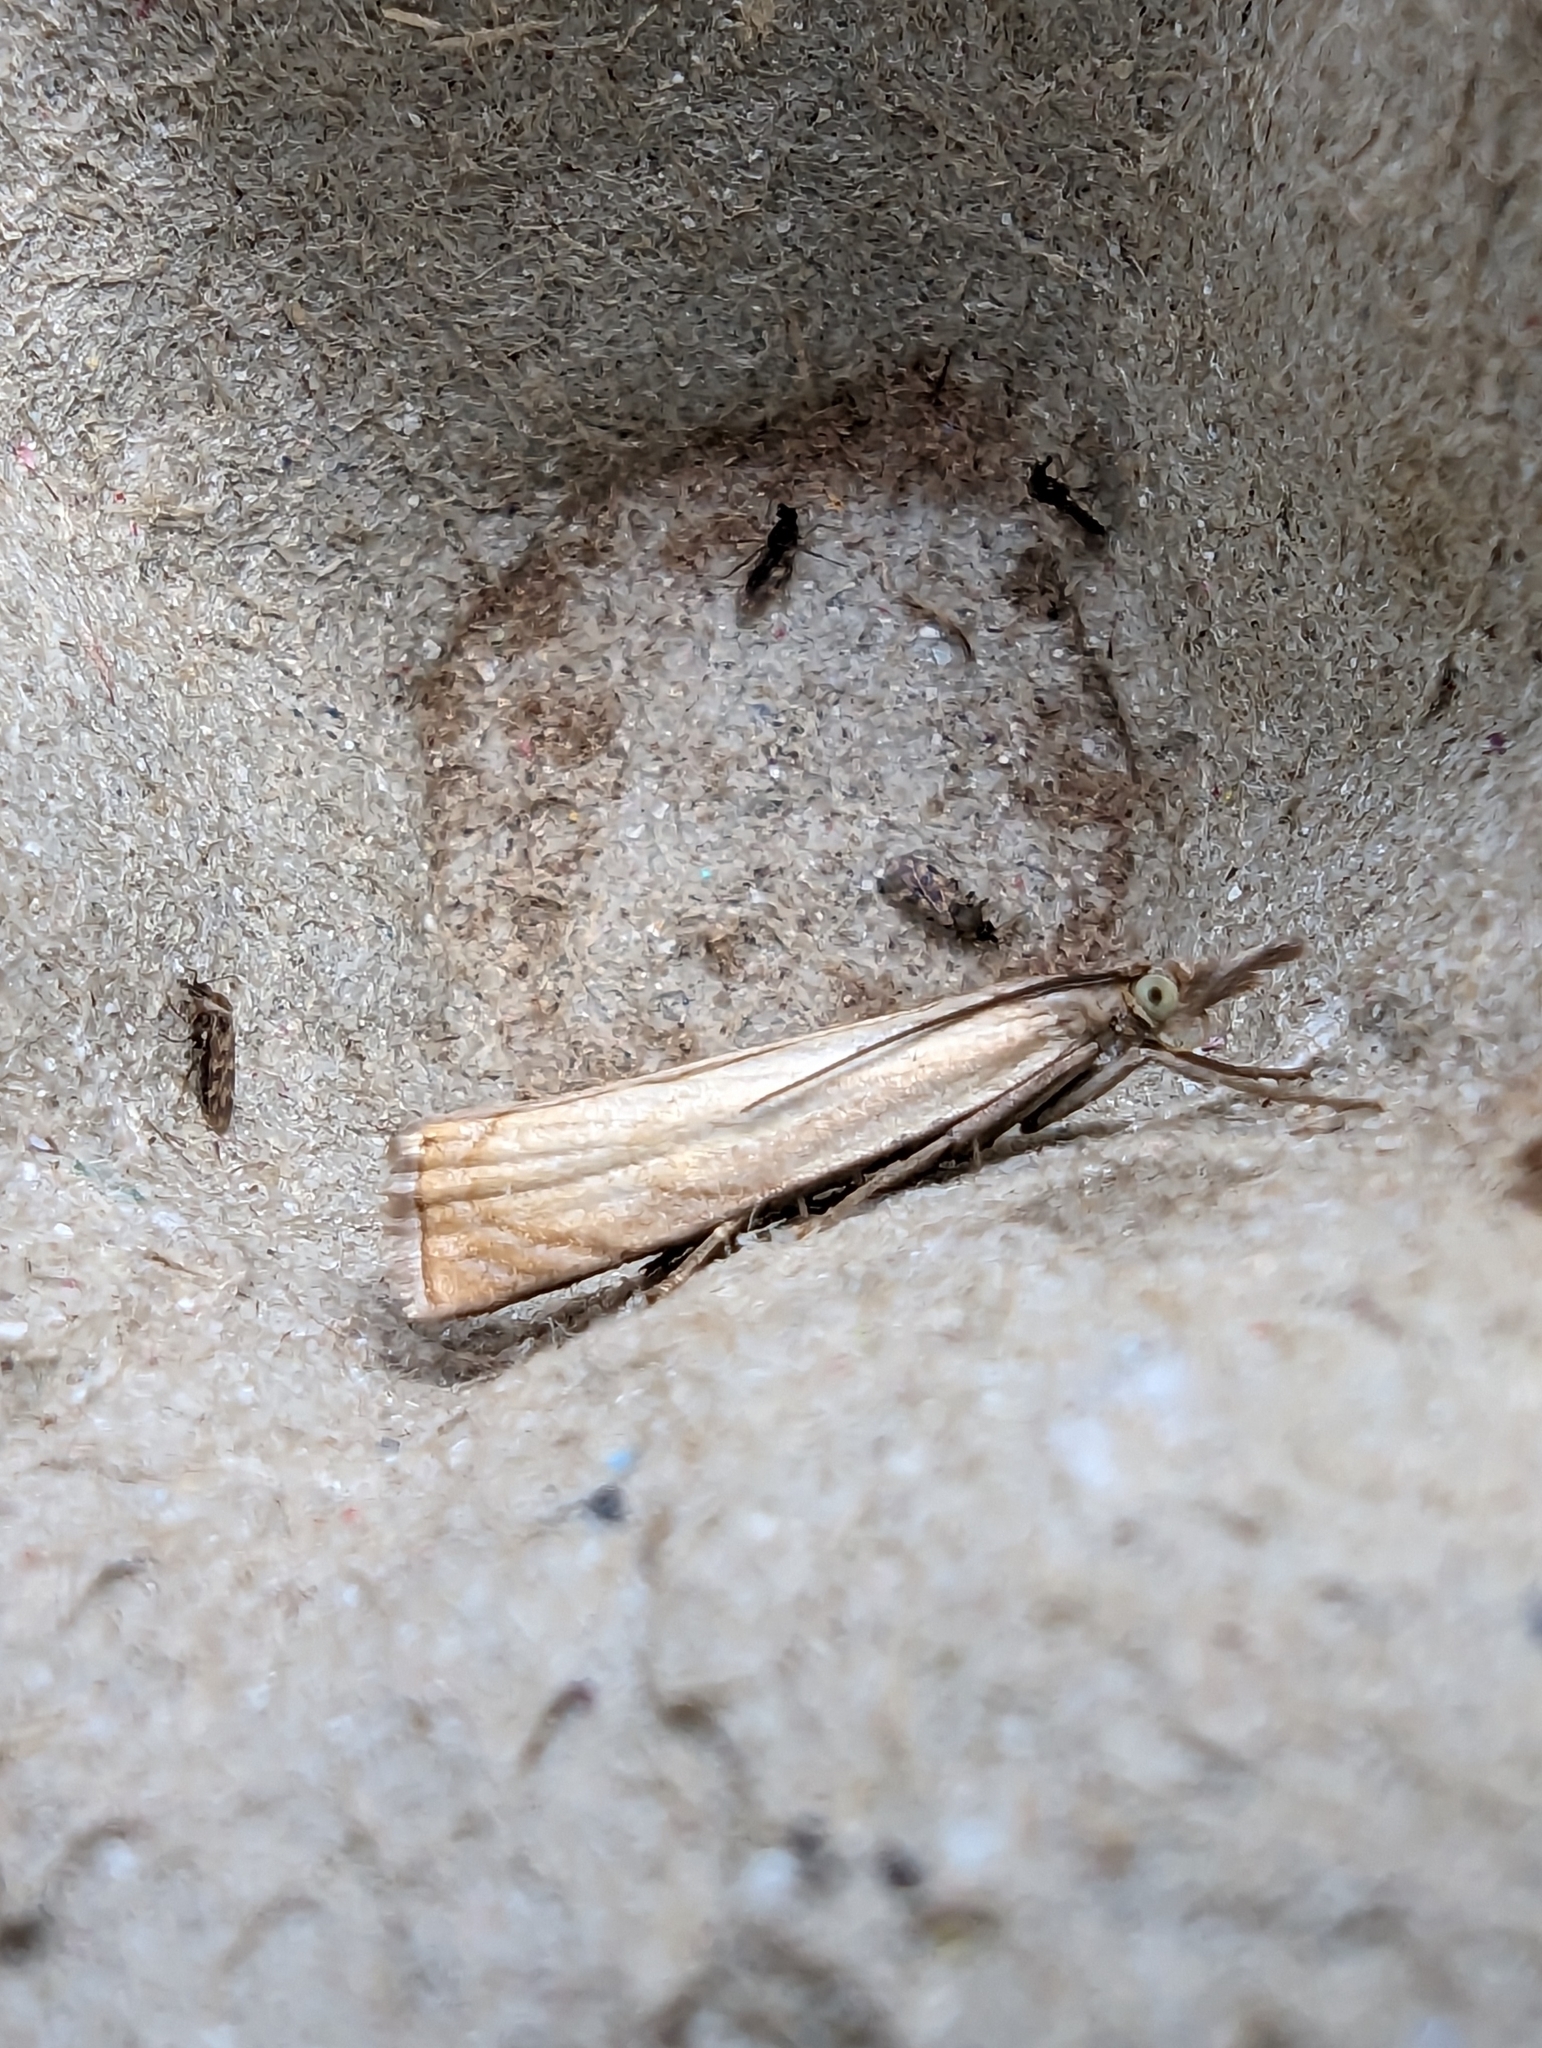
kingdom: Animalia
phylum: Arthropoda
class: Insecta
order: Lepidoptera
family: Crambidae
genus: Chrysoteuchia
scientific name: Chrysoteuchia culmella
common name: Garden grass-veneer
